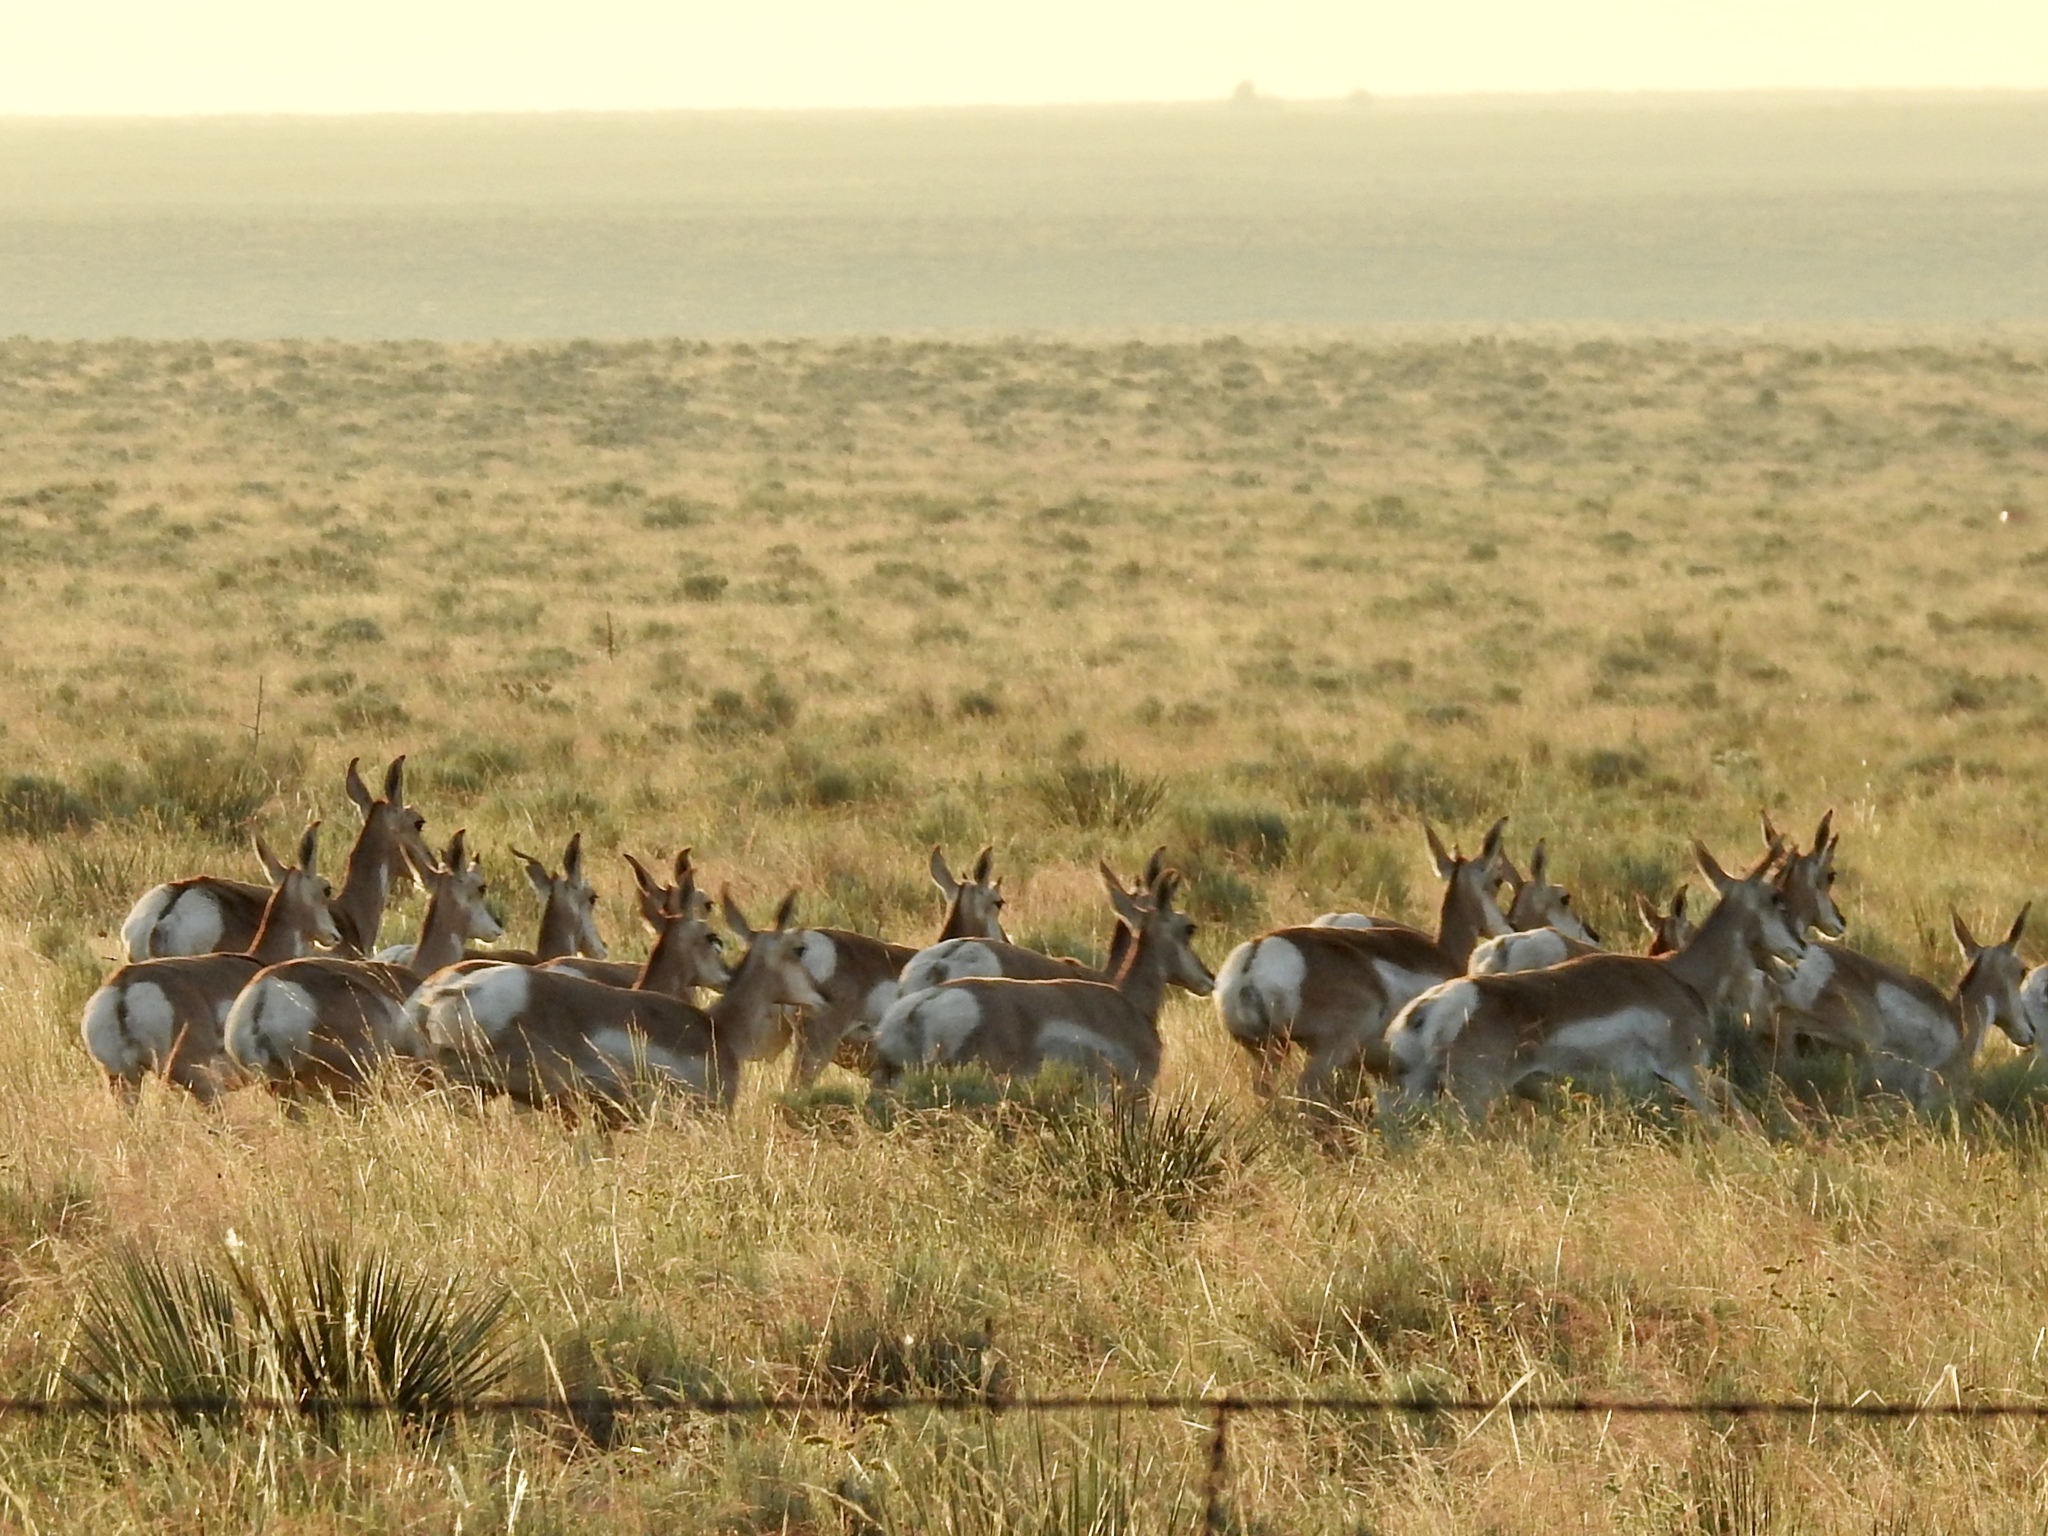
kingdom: Animalia
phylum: Chordata
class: Mammalia
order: Artiodactyla
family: Antilocapridae
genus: Antilocapra
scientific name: Antilocapra americana
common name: Pronghorn
